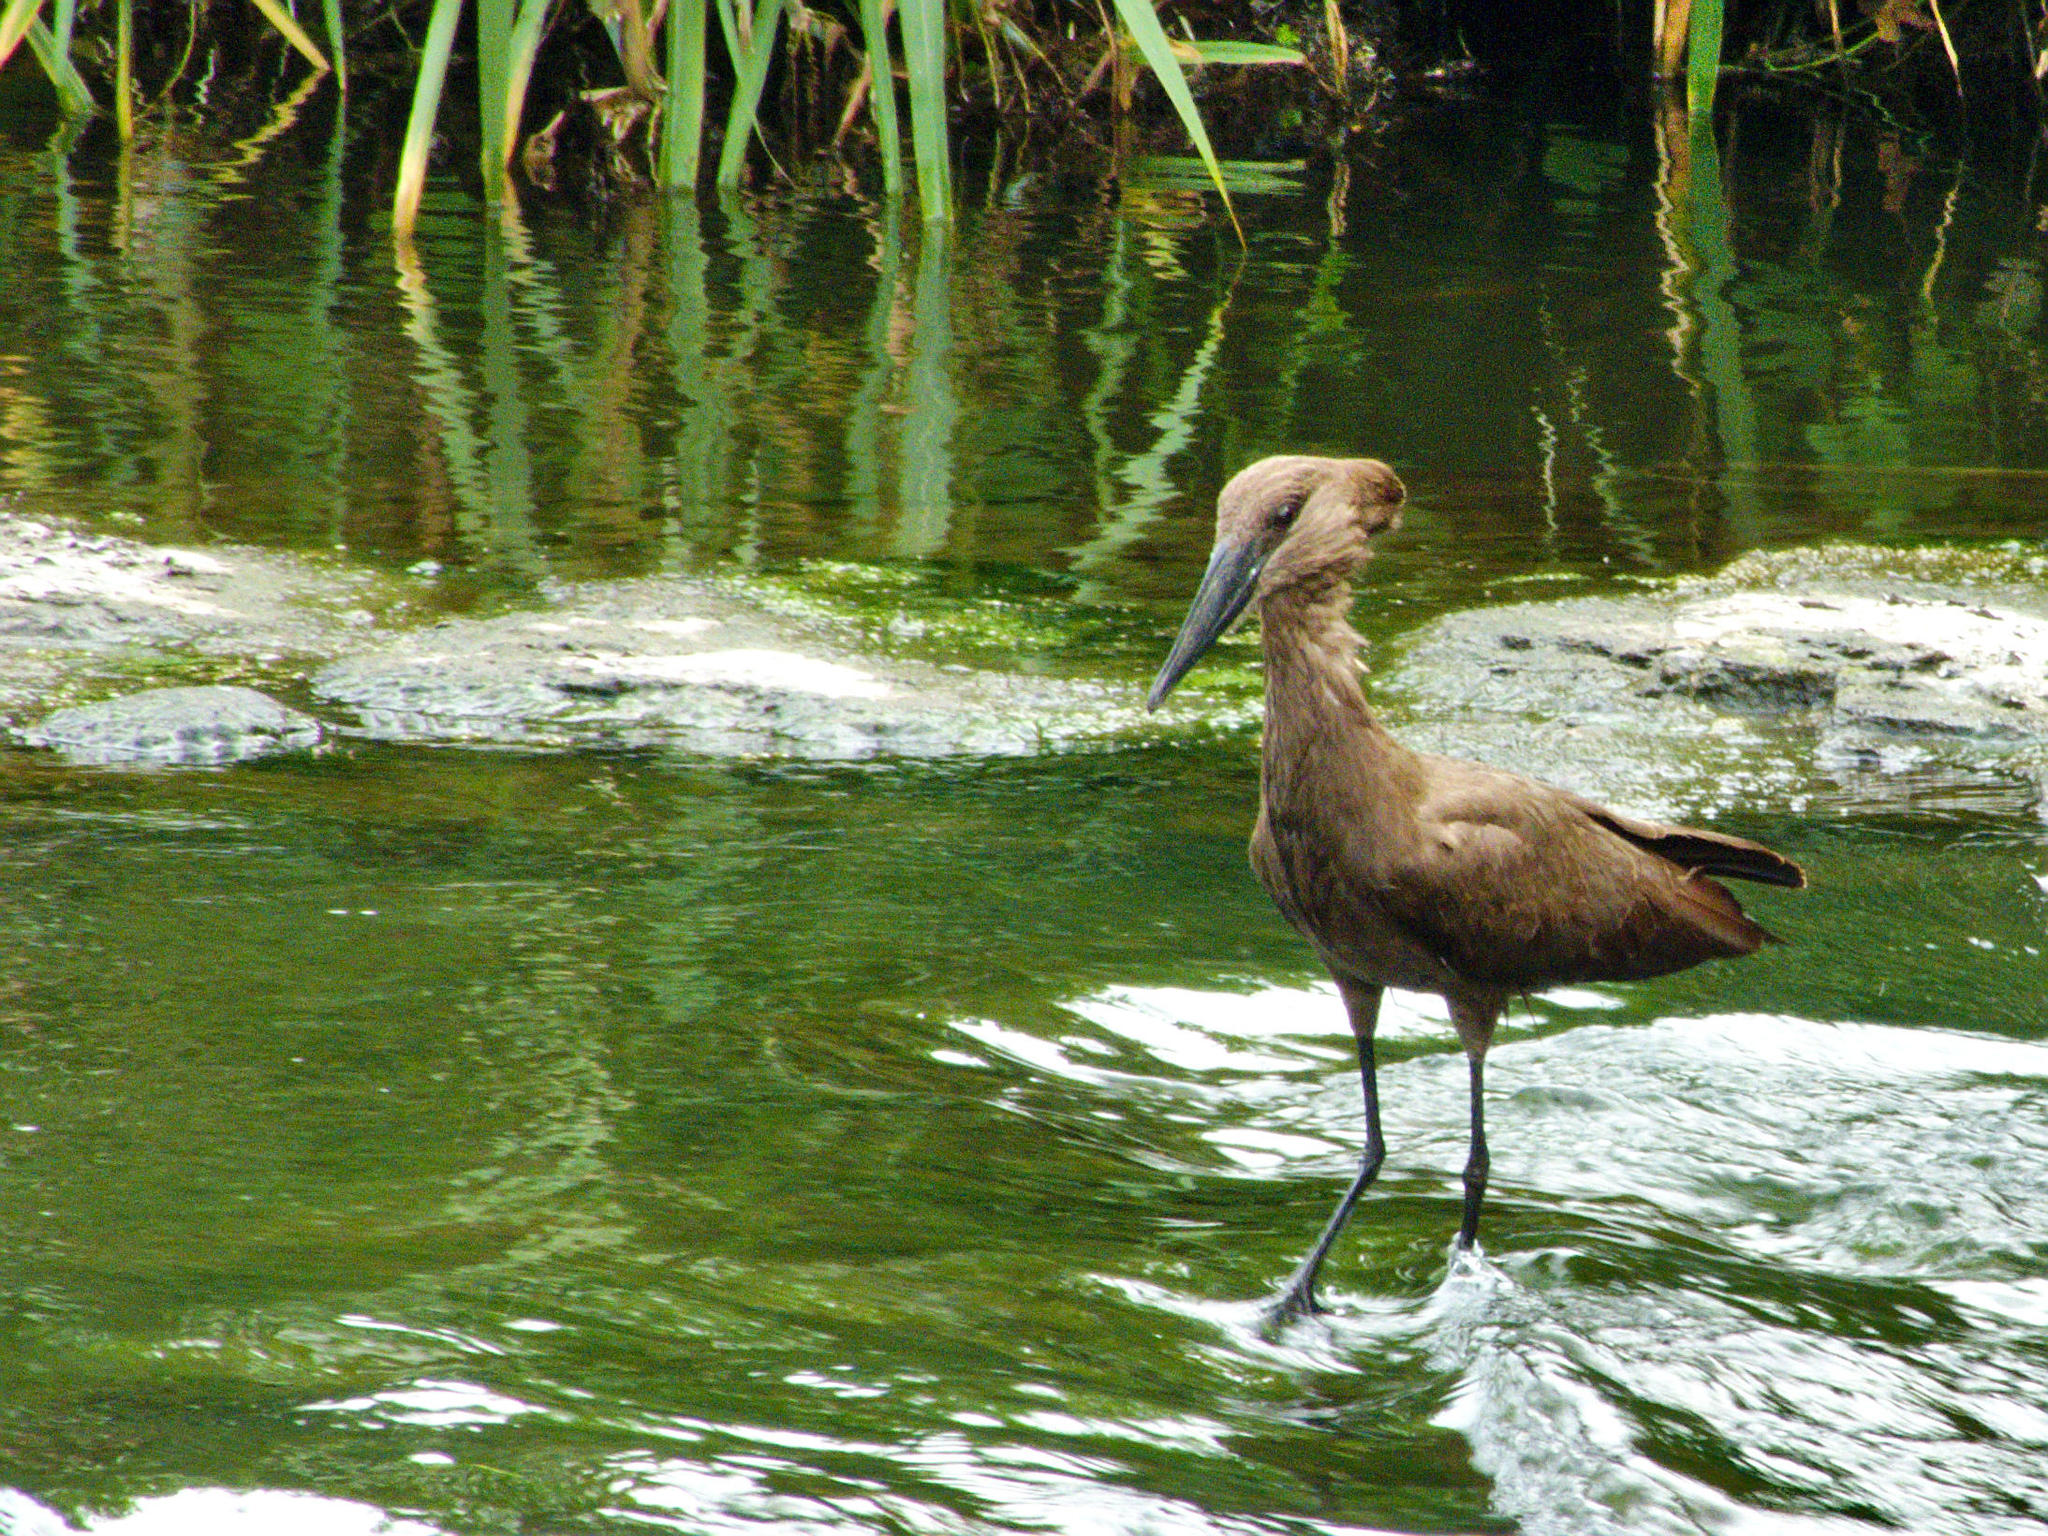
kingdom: Animalia
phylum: Chordata
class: Aves
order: Pelecaniformes
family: Scopidae
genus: Scopus
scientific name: Scopus umbretta
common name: Hamerkop
